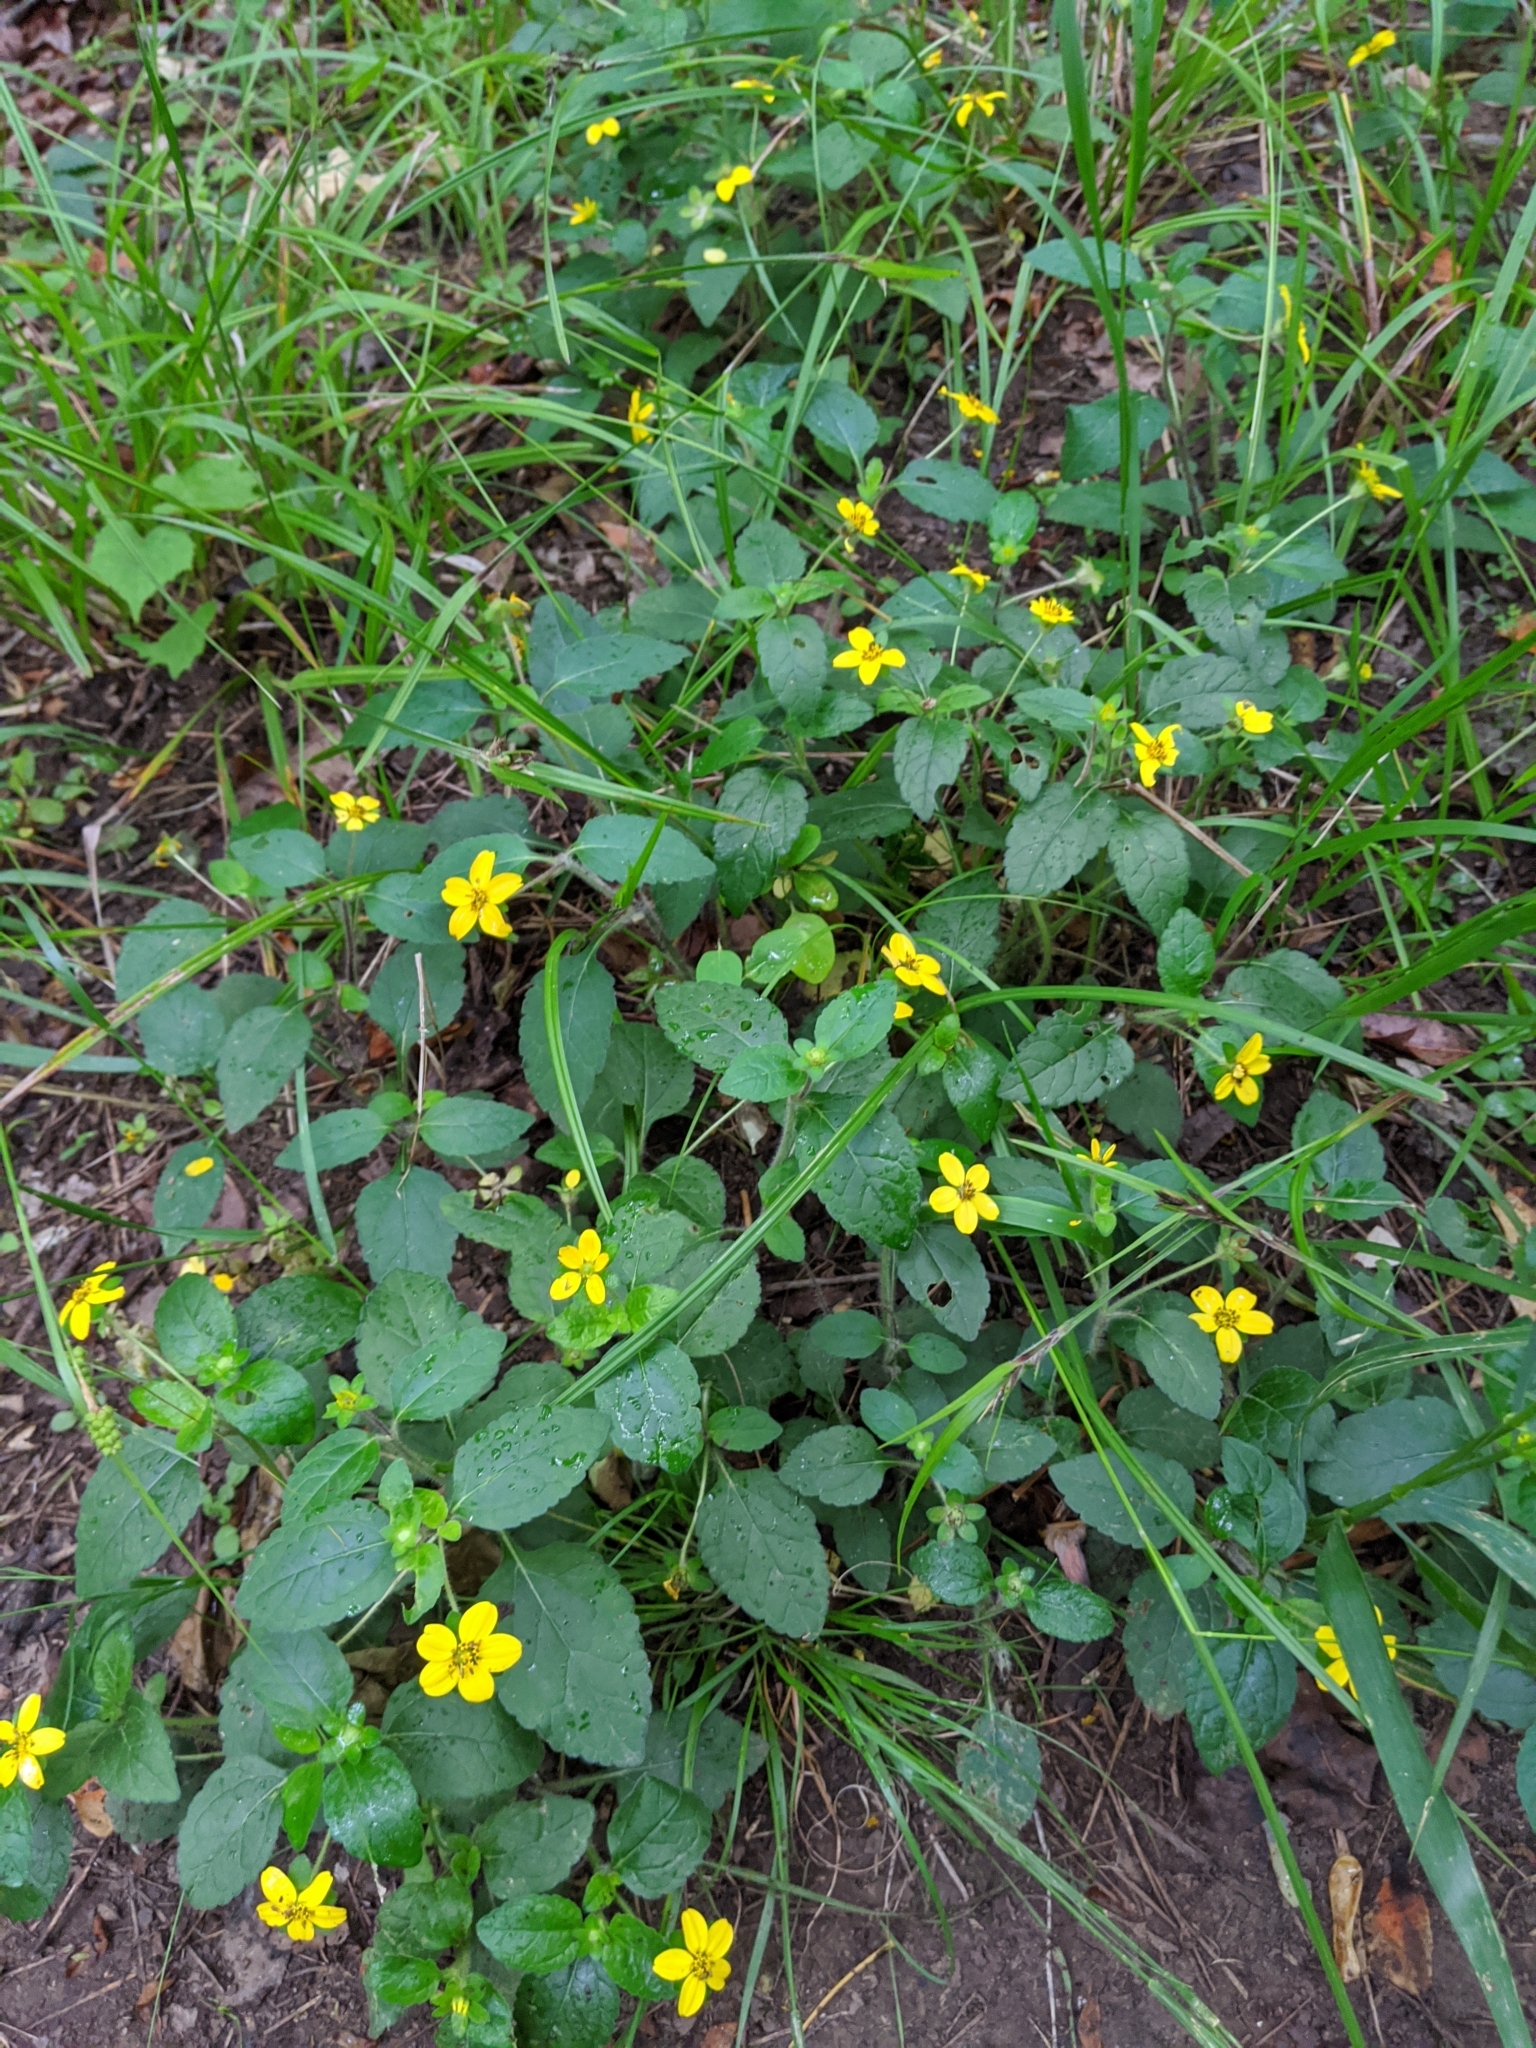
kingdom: Plantae
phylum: Tracheophyta
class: Magnoliopsida
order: Asterales
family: Asteraceae
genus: Chrysogonum
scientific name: Chrysogonum virginianum
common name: Golden-knee
